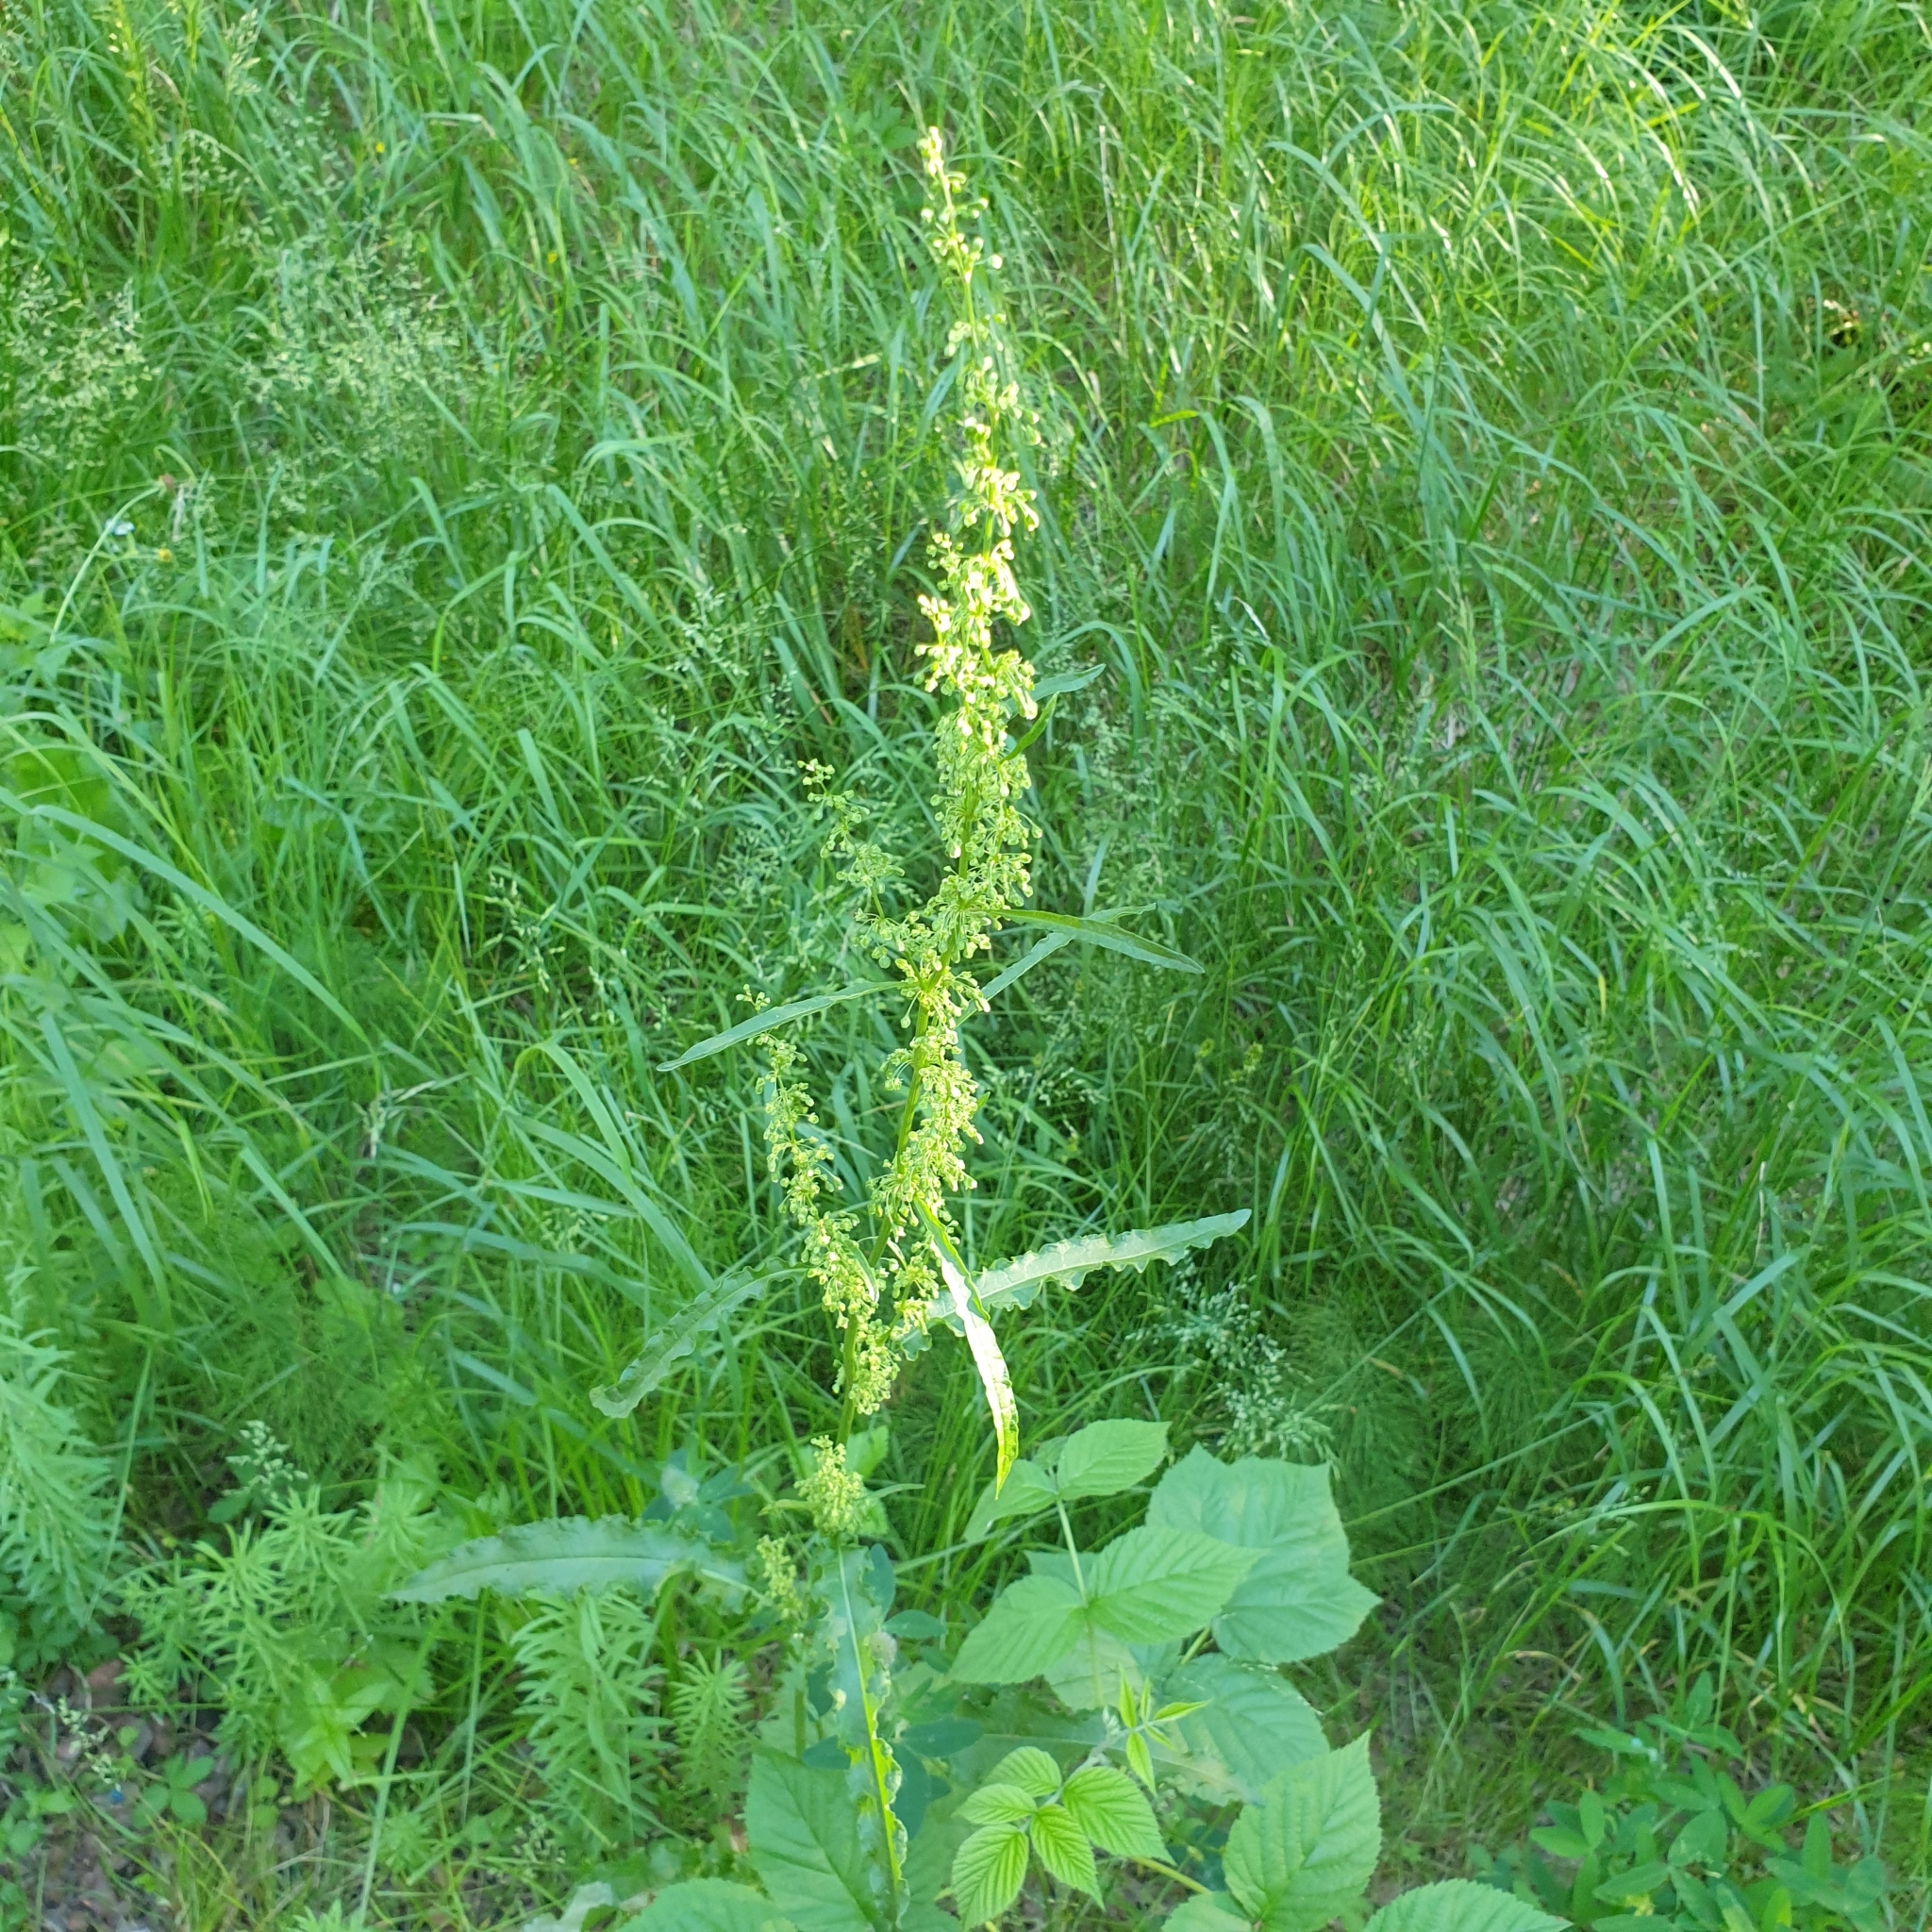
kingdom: Plantae
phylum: Tracheophyta
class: Magnoliopsida
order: Caryophyllales
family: Polygonaceae
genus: Rumex
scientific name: Rumex crispus
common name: Curled dock
